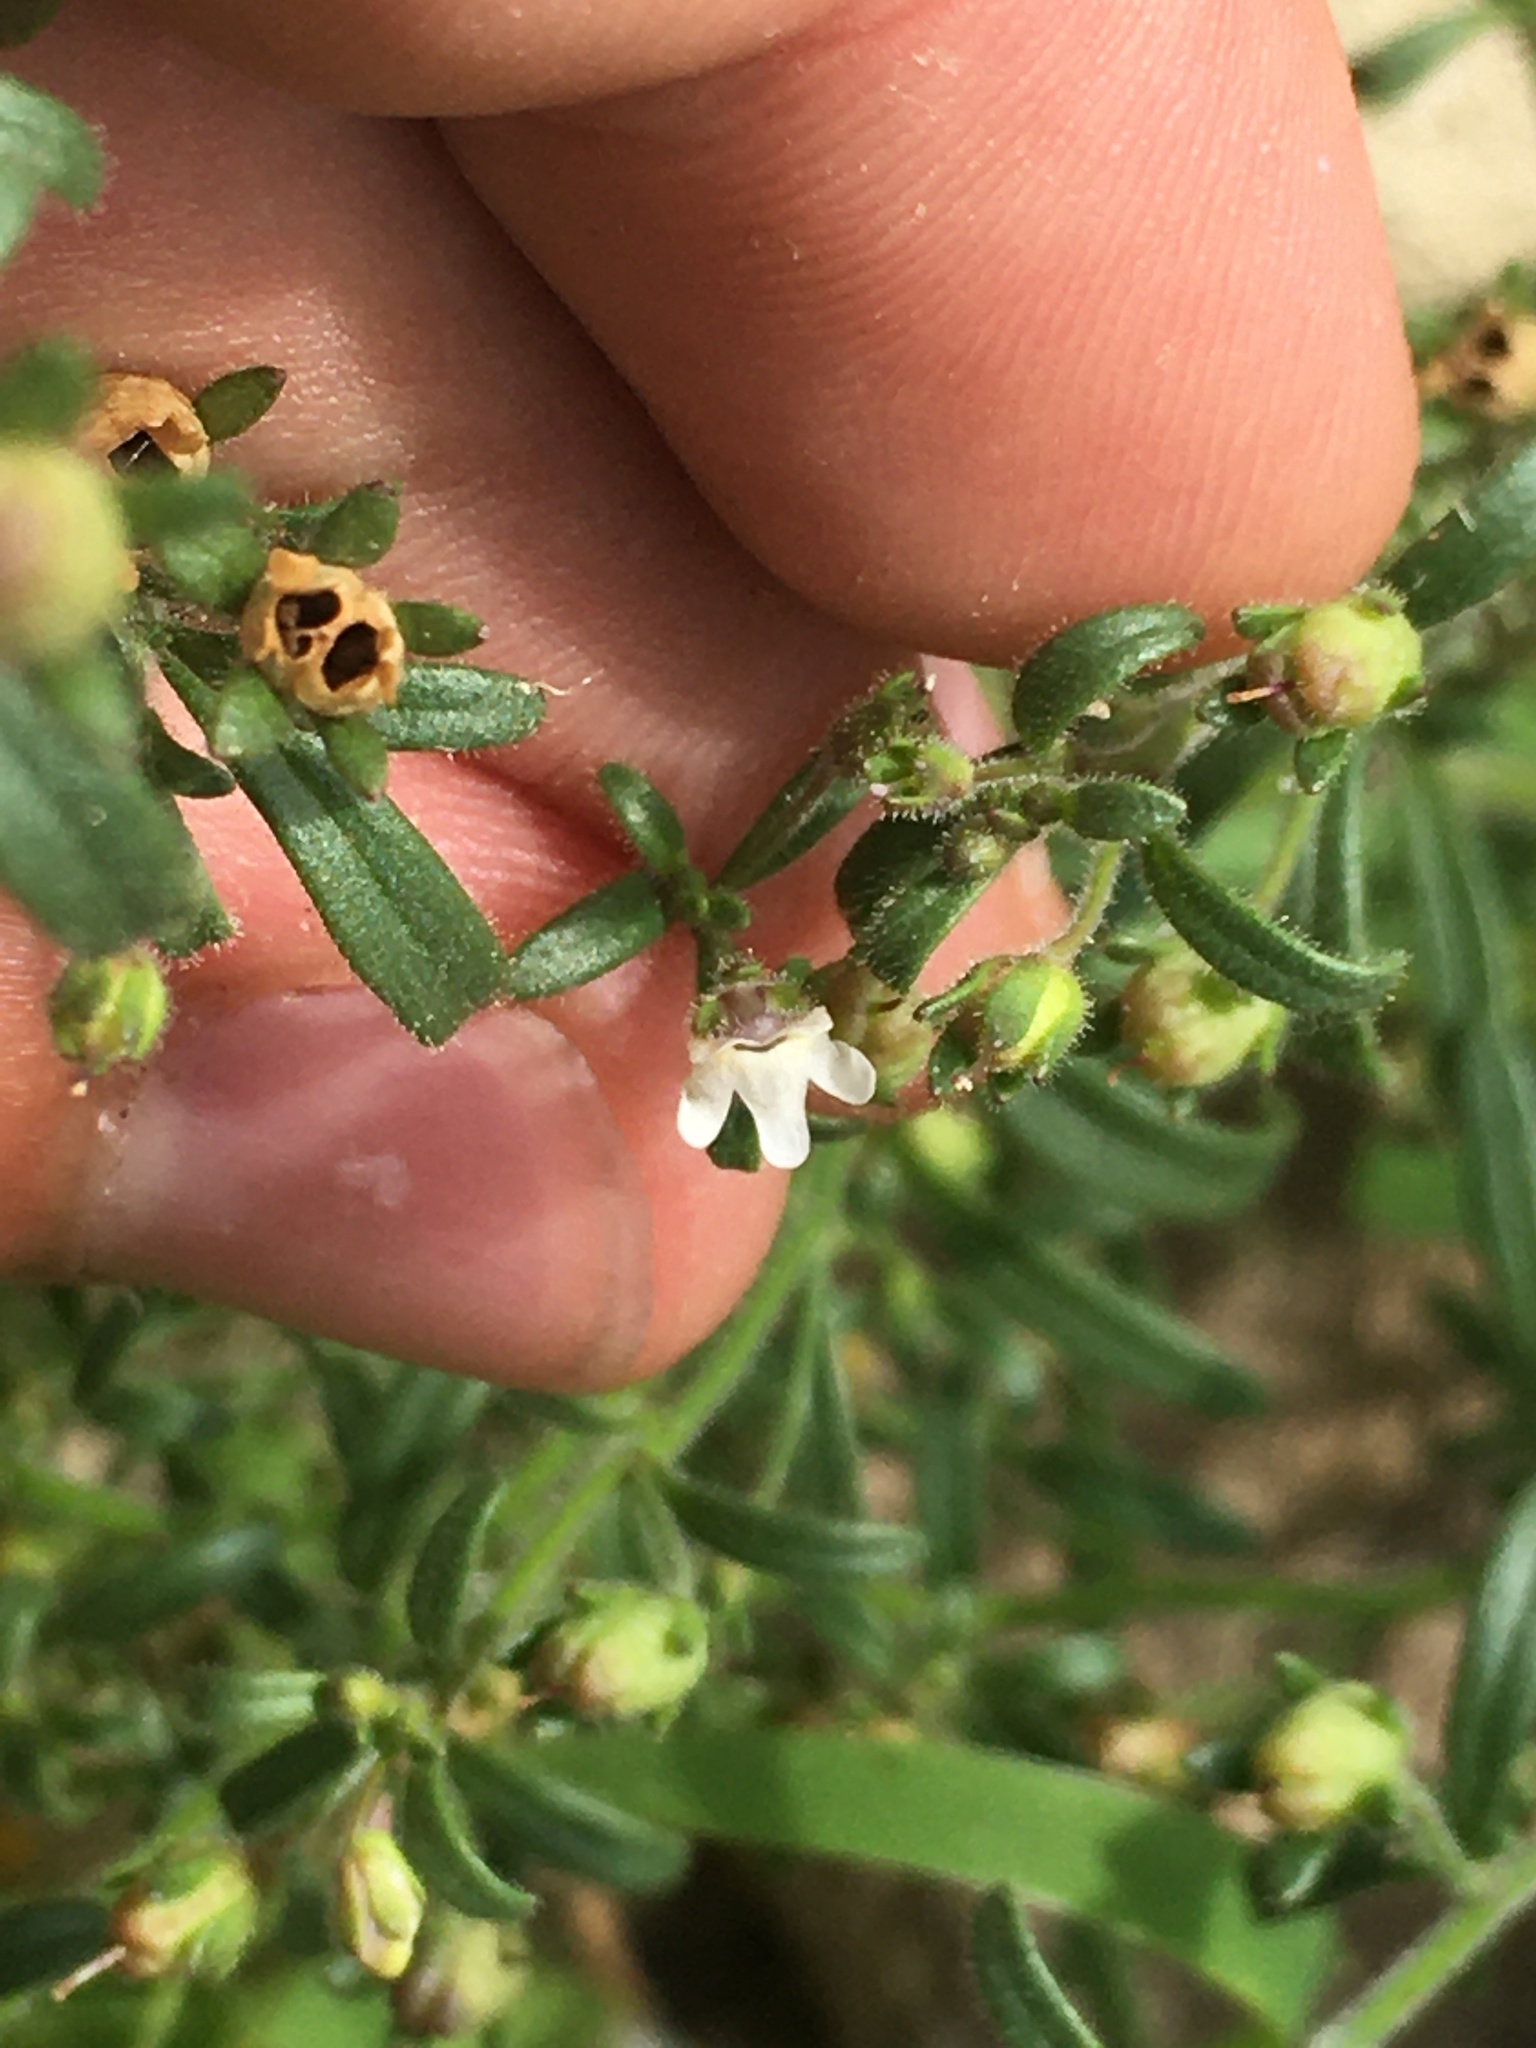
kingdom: Plantae
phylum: Tracheophyta
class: Magnoliopsida
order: Lamiales
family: Plantaginaceae
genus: Chaenorhinum
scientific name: Chaenorhinum minus
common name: Dwarf snapdragon
